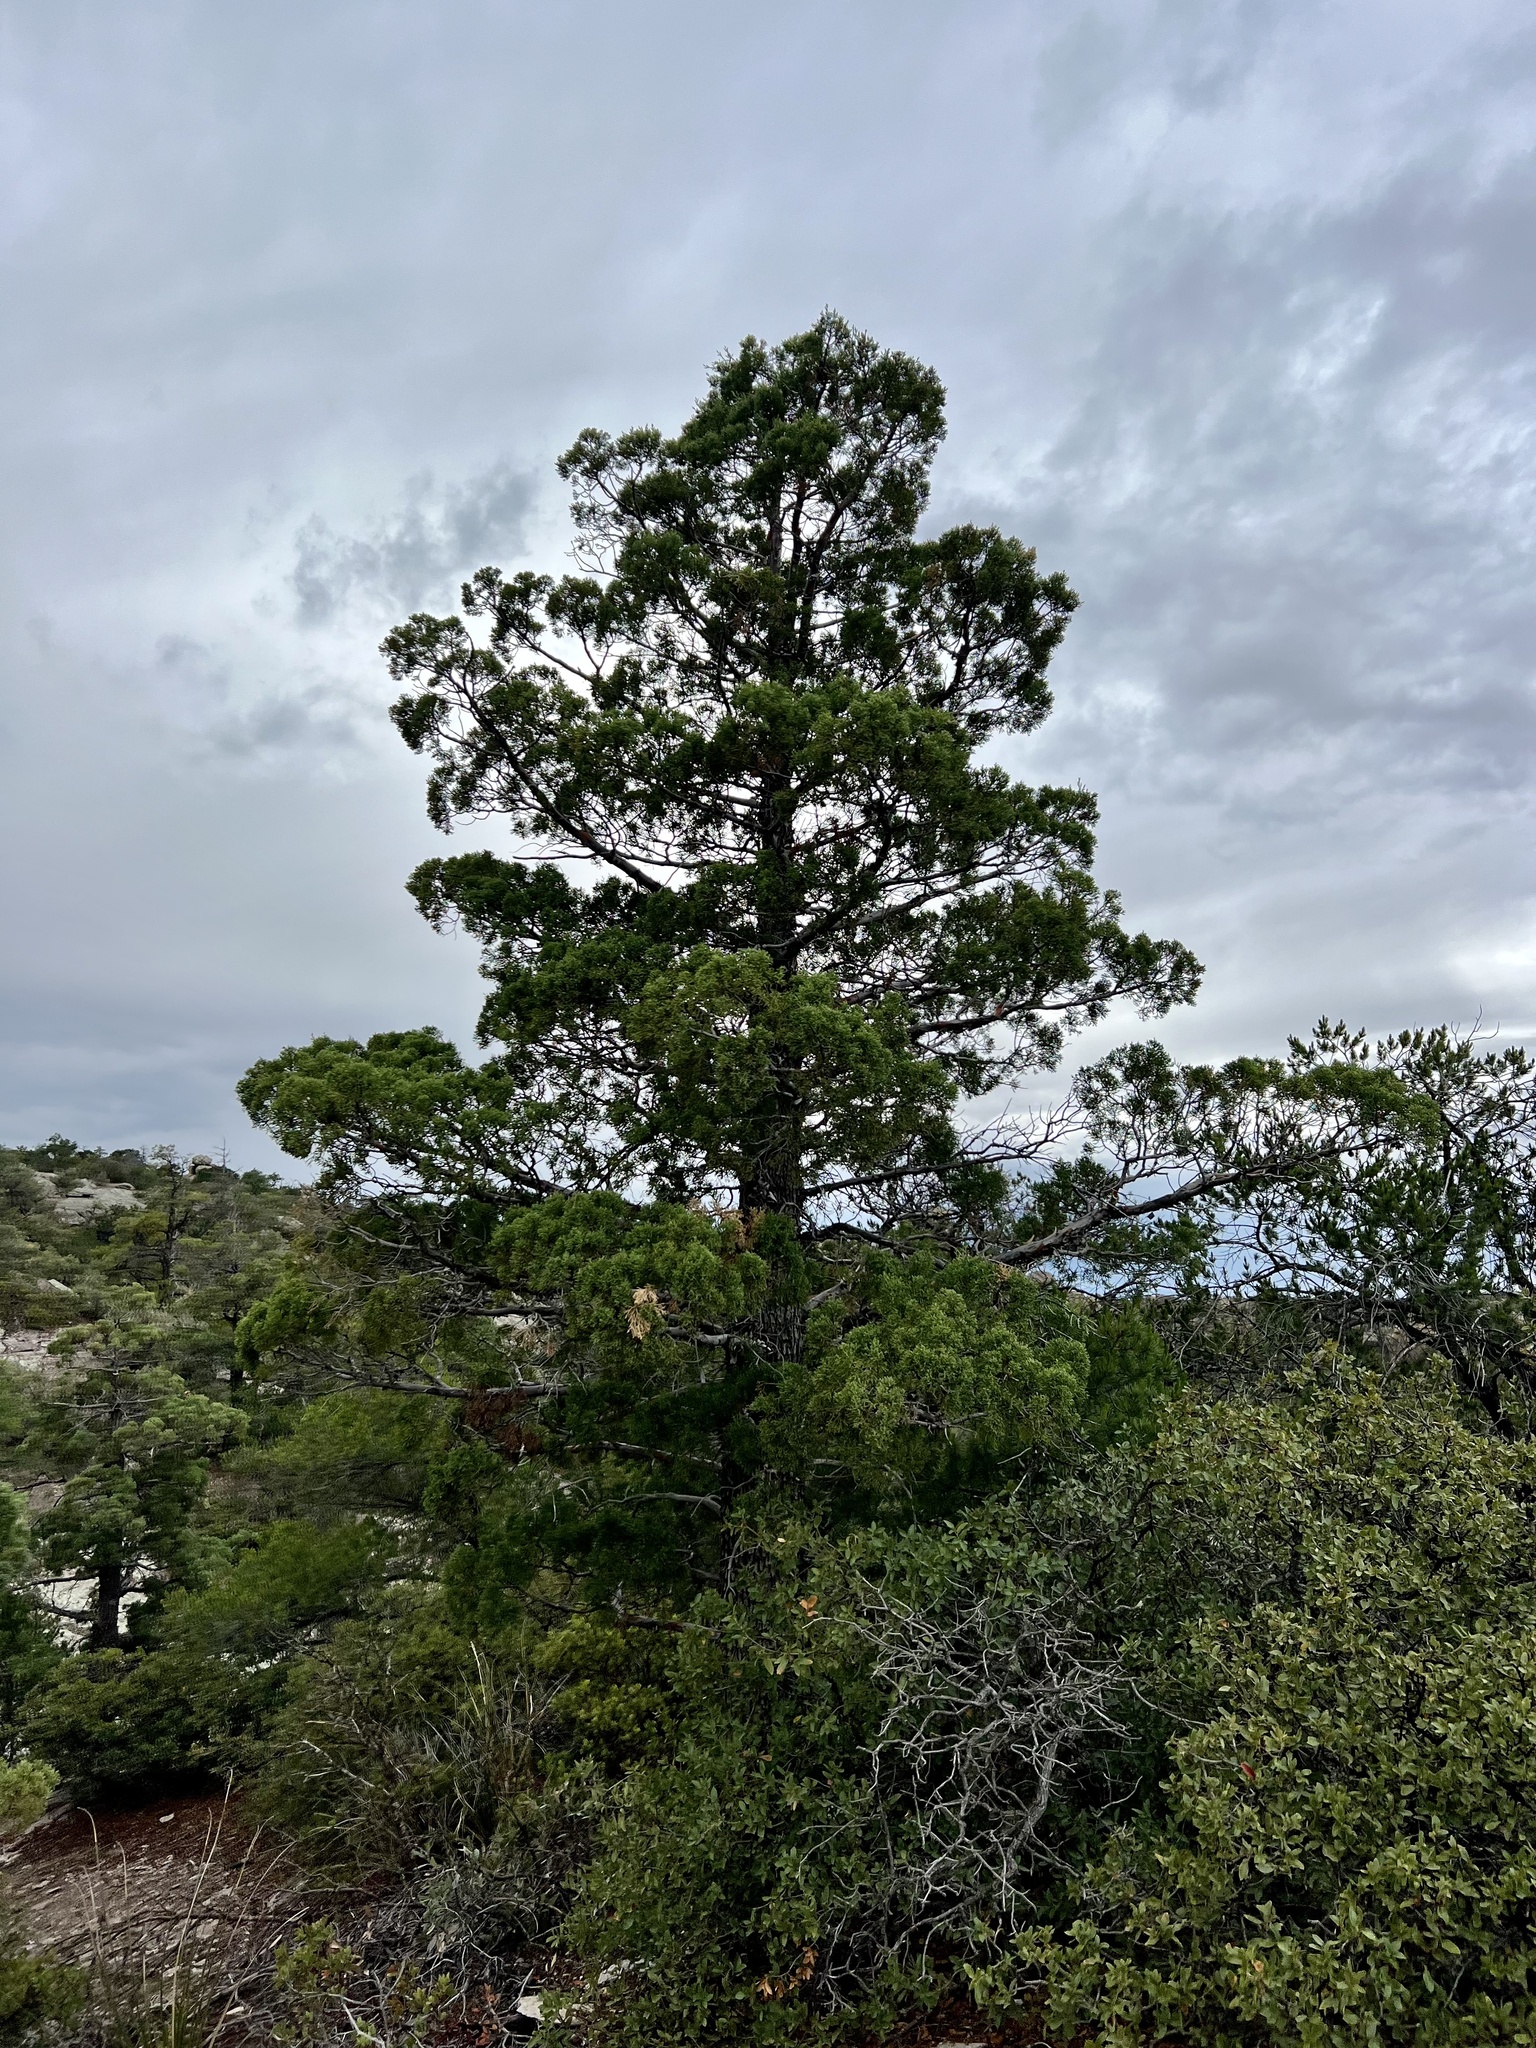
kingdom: Plantae
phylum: Tracheophyta
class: Pinopsida
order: Pinales
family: Cupressaceae
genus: Cupressus
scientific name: Cupressus arizonica
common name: Arizona cypress
